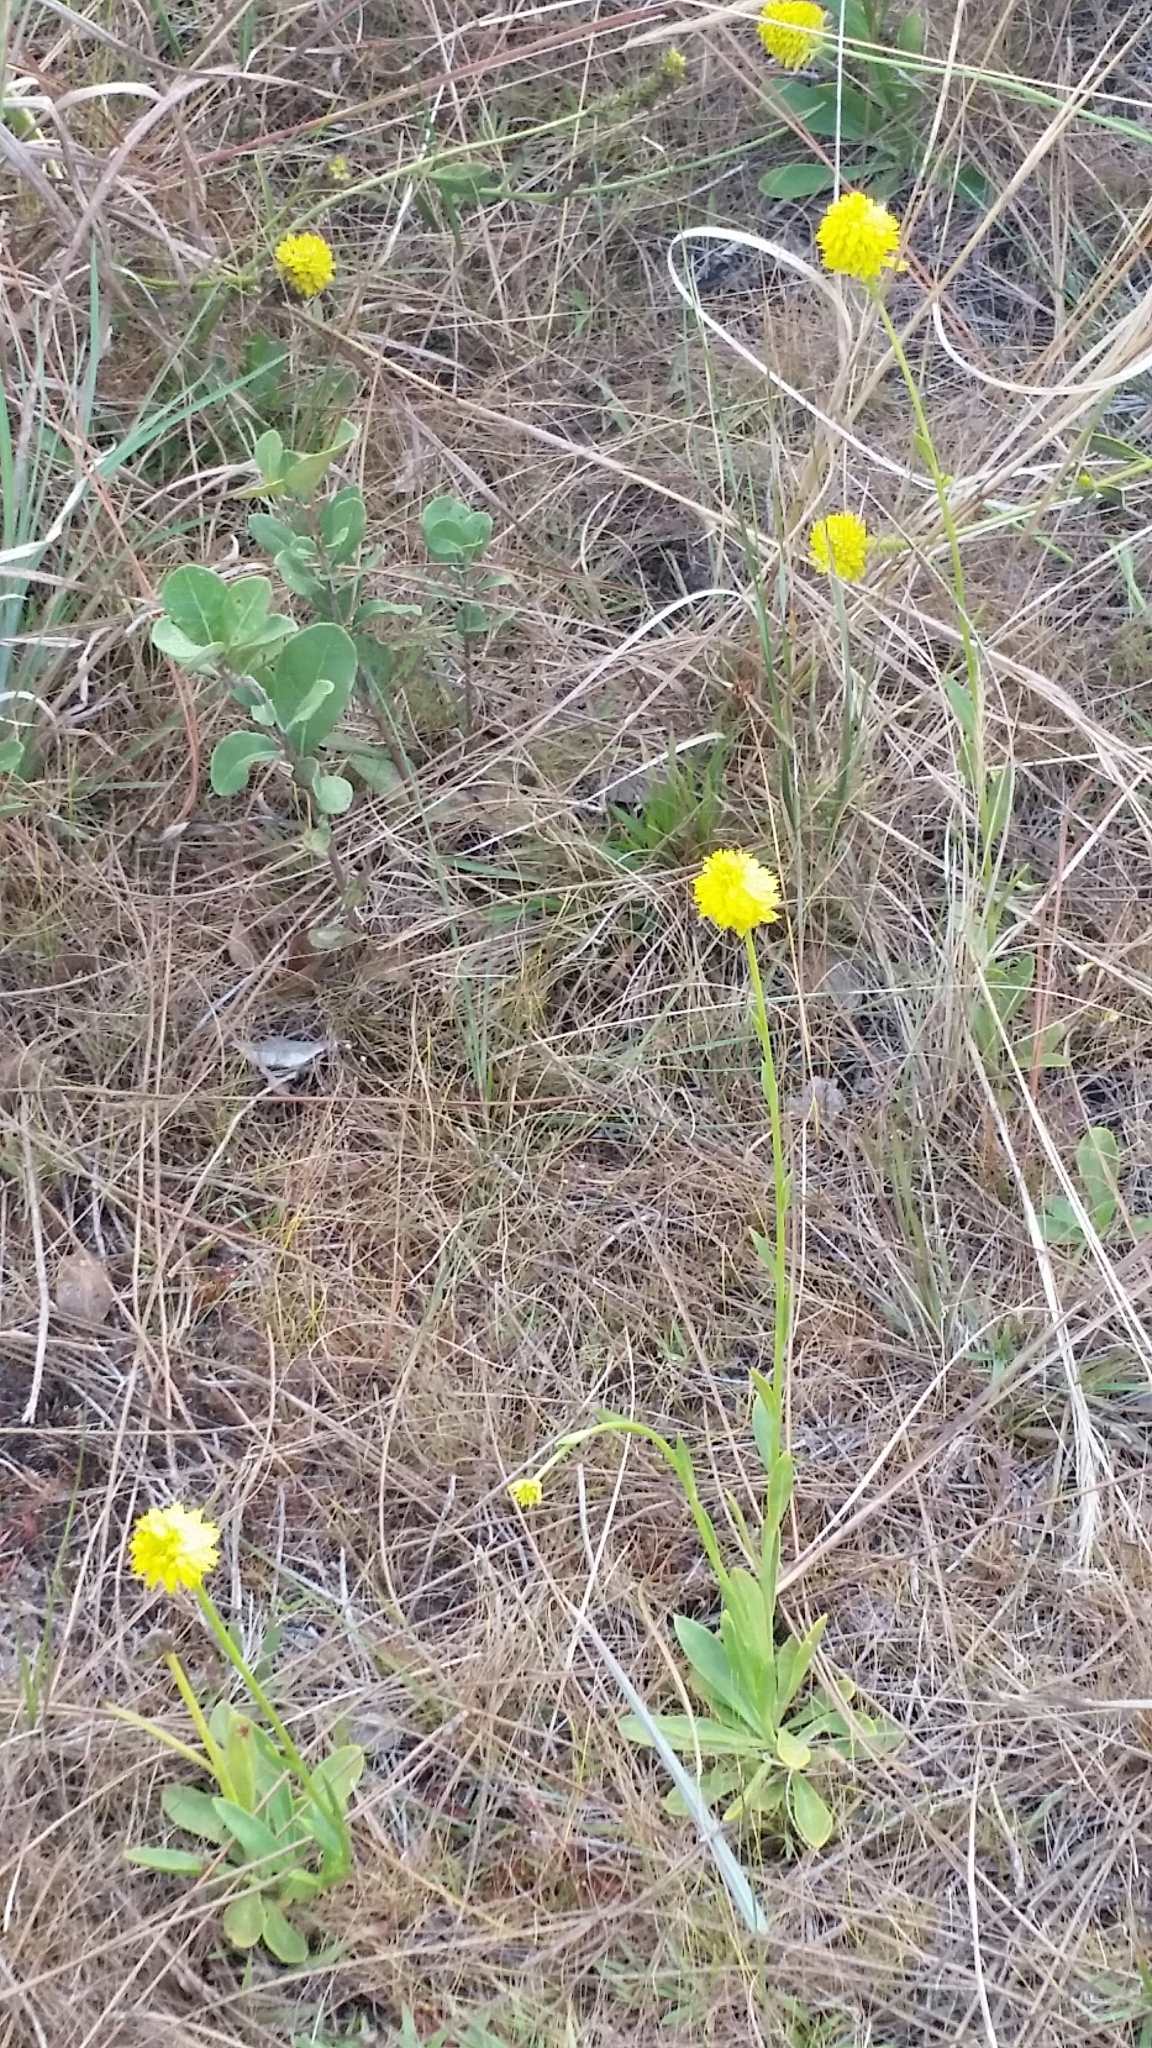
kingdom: Plantae
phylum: Tracheophyta
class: Magnoliopsida
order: Fabales
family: Polygalaceae
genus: Polygala
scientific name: Polygala rugelii
